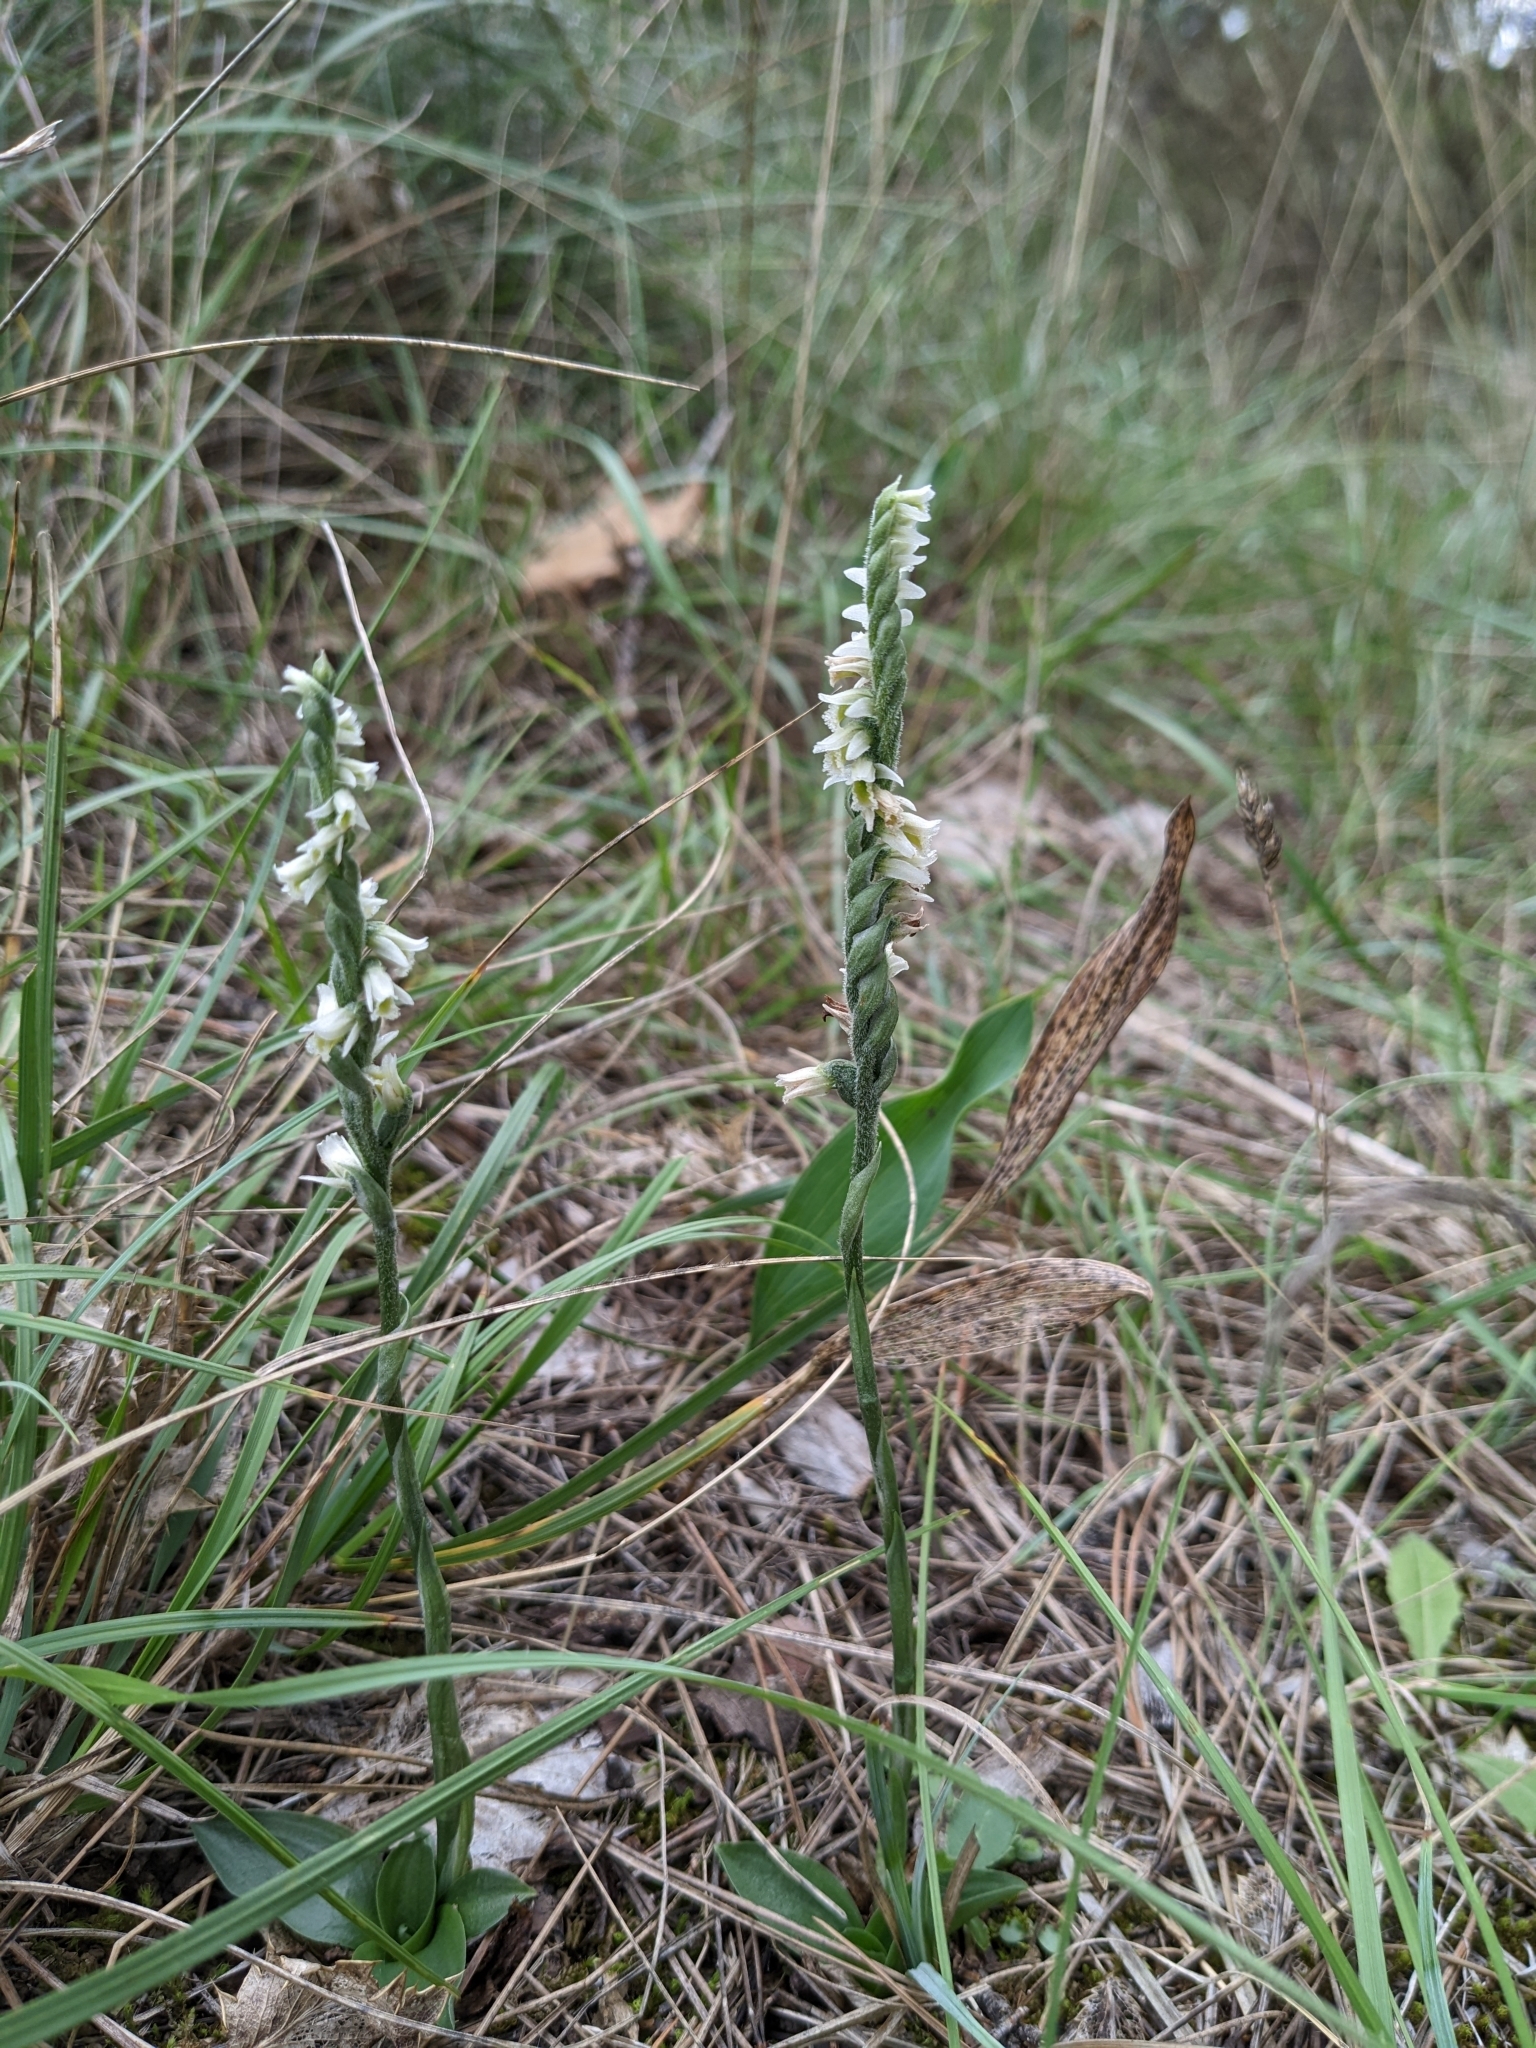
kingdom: Plantae
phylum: Tracheophyta
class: Liliopsida
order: Asparagales
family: Orchidaceae
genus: Spiranthes
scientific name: Spiranthes spiralis
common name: Autumn lady's-tresses
